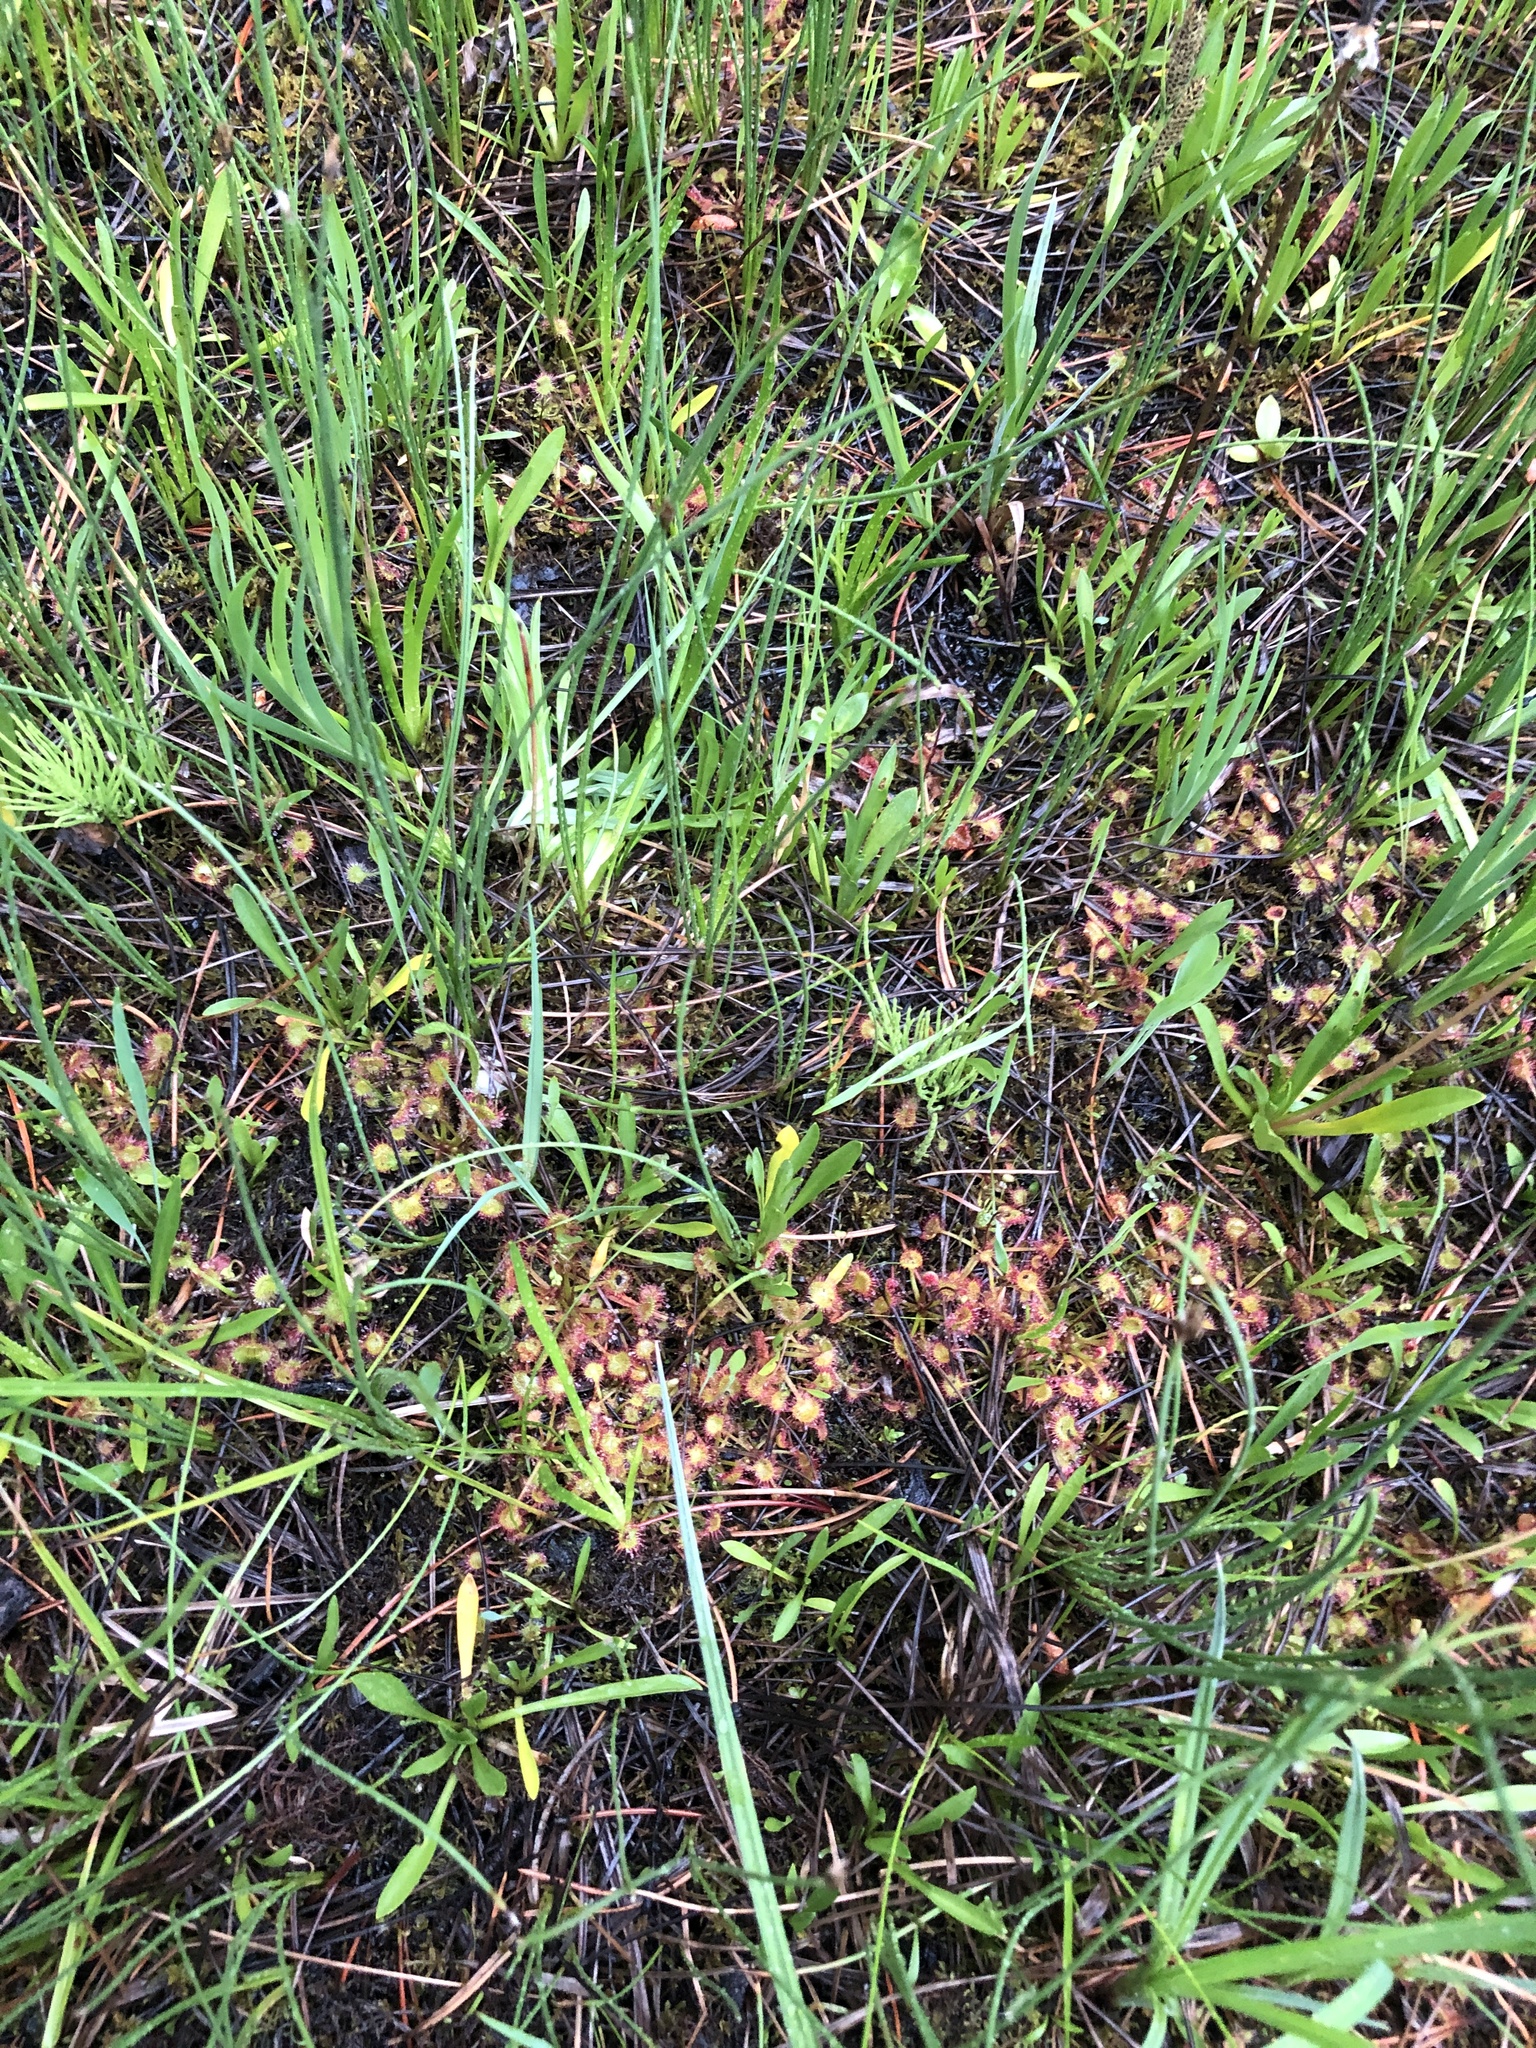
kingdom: Plantae
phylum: Tracheophyta
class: Magnoliopsida
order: Caryophyllales
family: Droseraceae
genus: Drosera
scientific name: Drosera rotundifolia
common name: Round-leaved sundew
